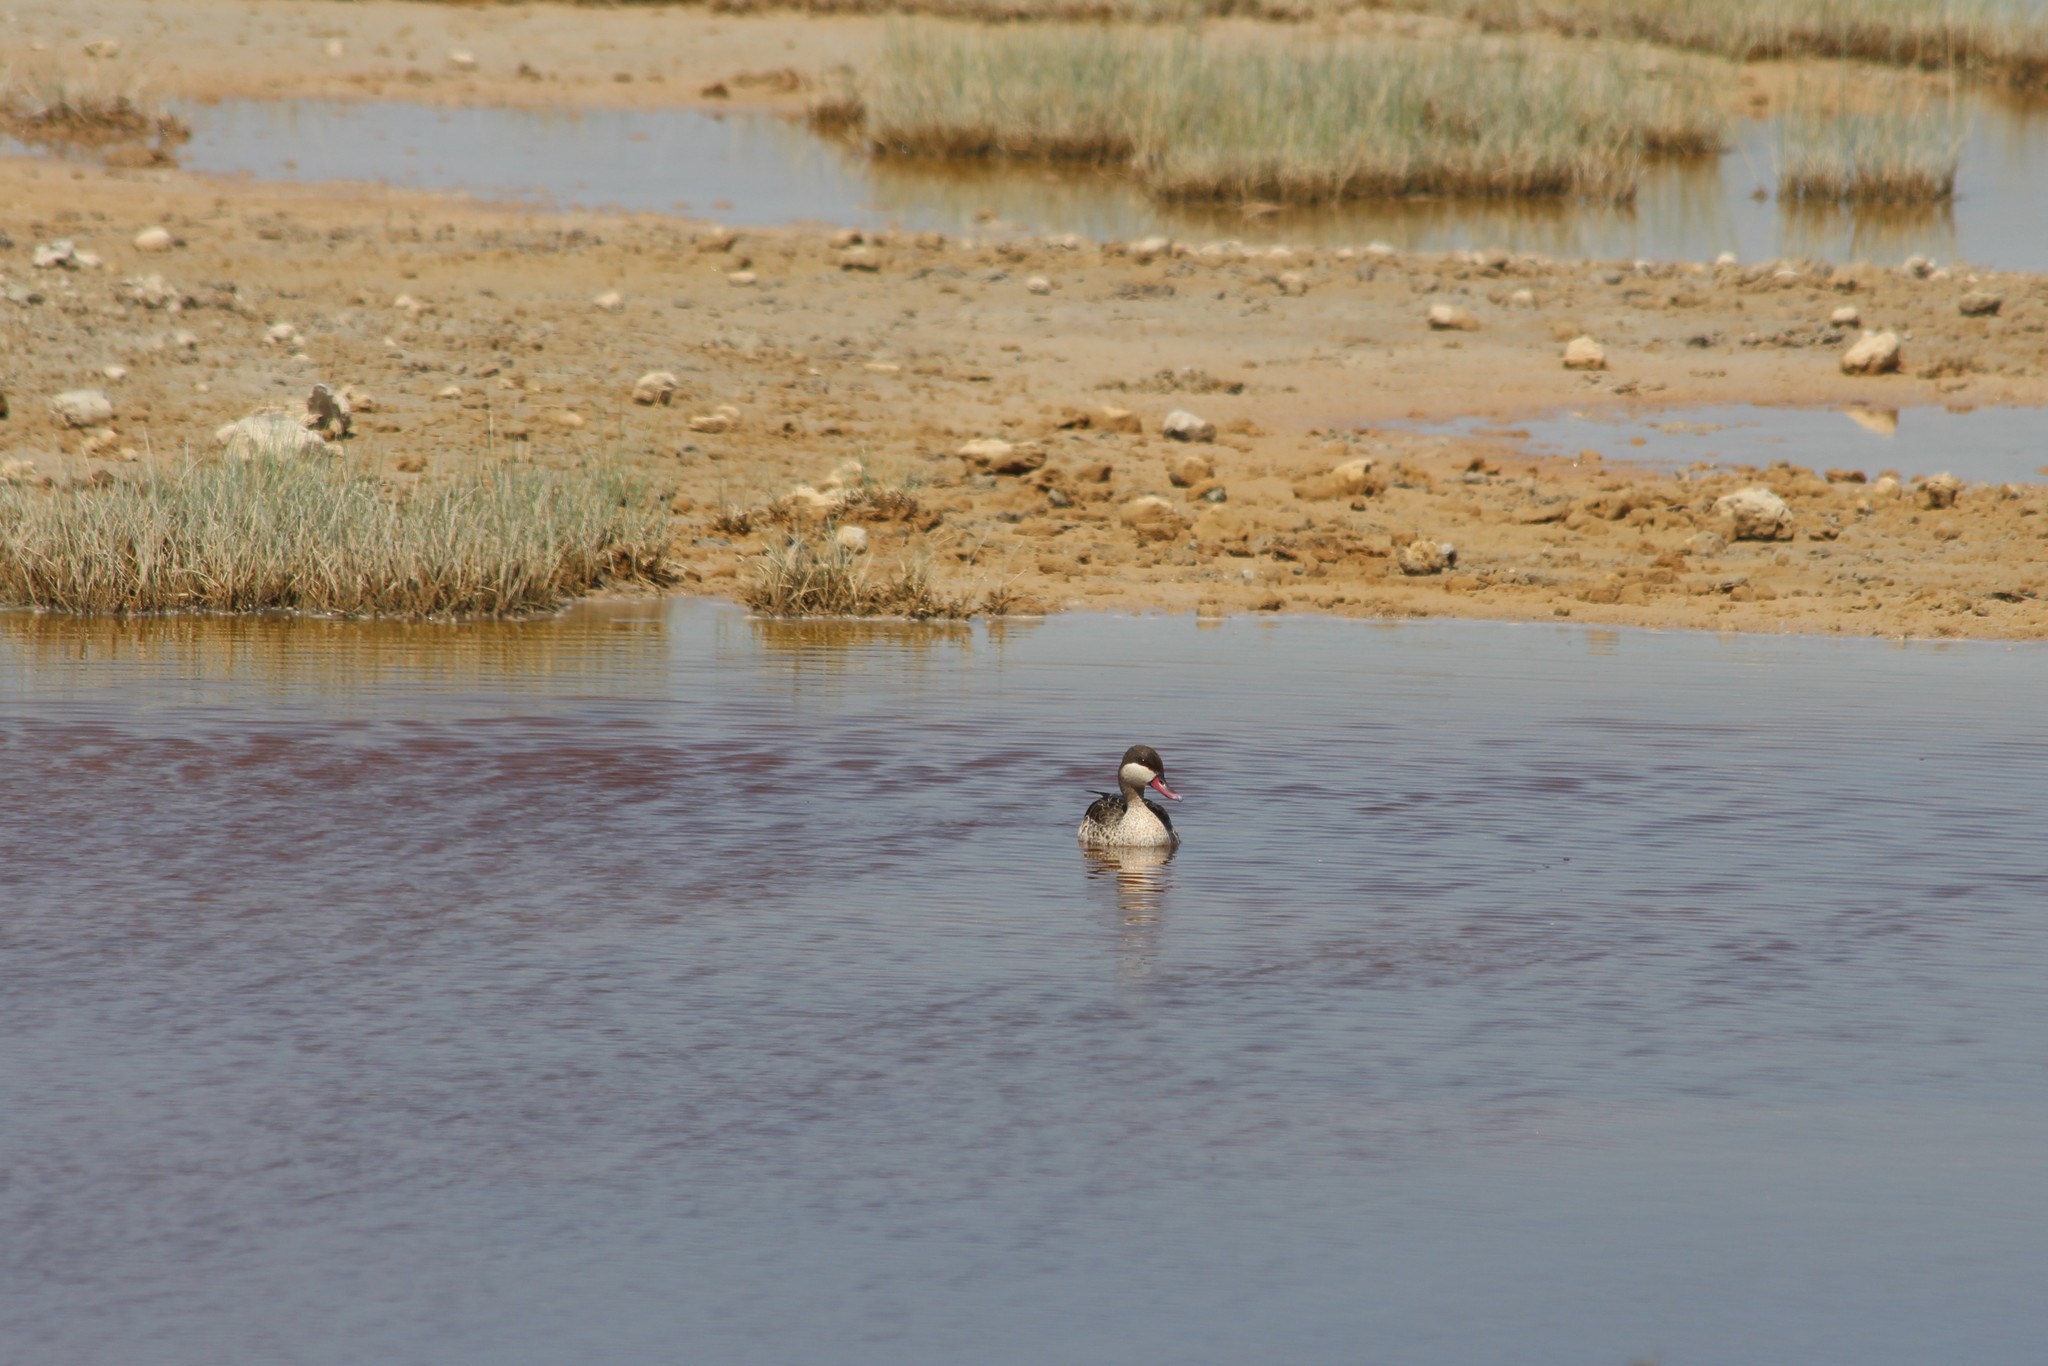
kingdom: Animalia
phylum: Chordata
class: Aves
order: Anseriformes
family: Anatidae
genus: Anas
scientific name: Anas erythrorhyncha
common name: Red-billed teal
